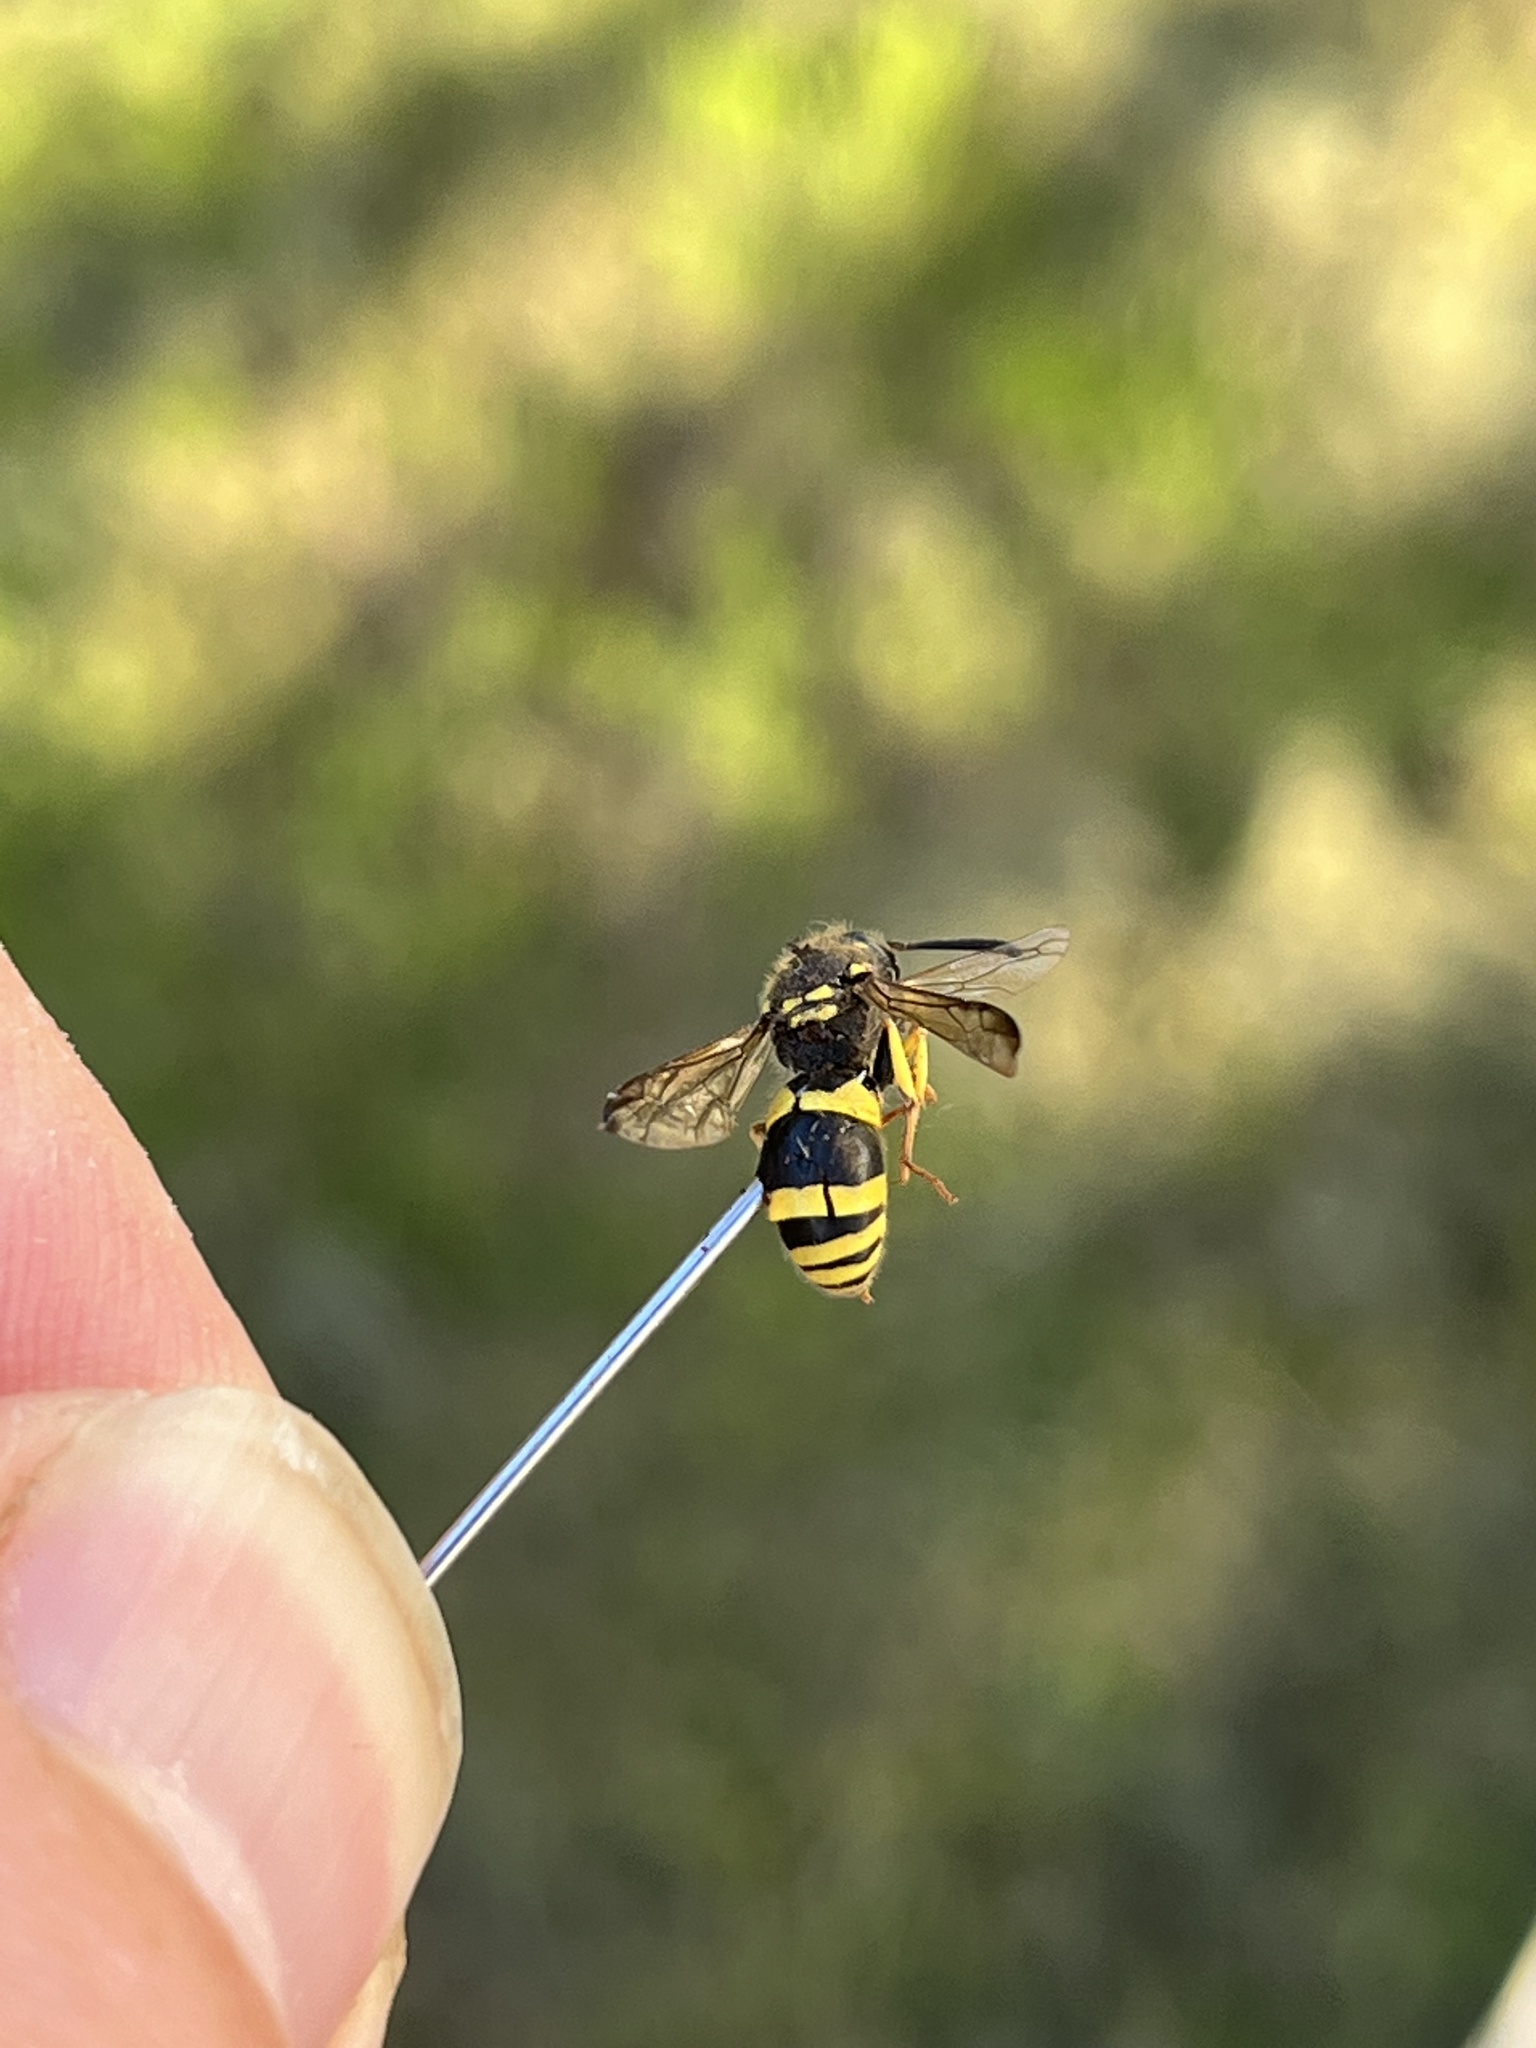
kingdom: Animalia
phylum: Arthropoda
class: Insecta
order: Hymenoptera
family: Vespidae
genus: Ancistrocerus
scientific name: Ancistrocerus gazella
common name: European tube wasp
